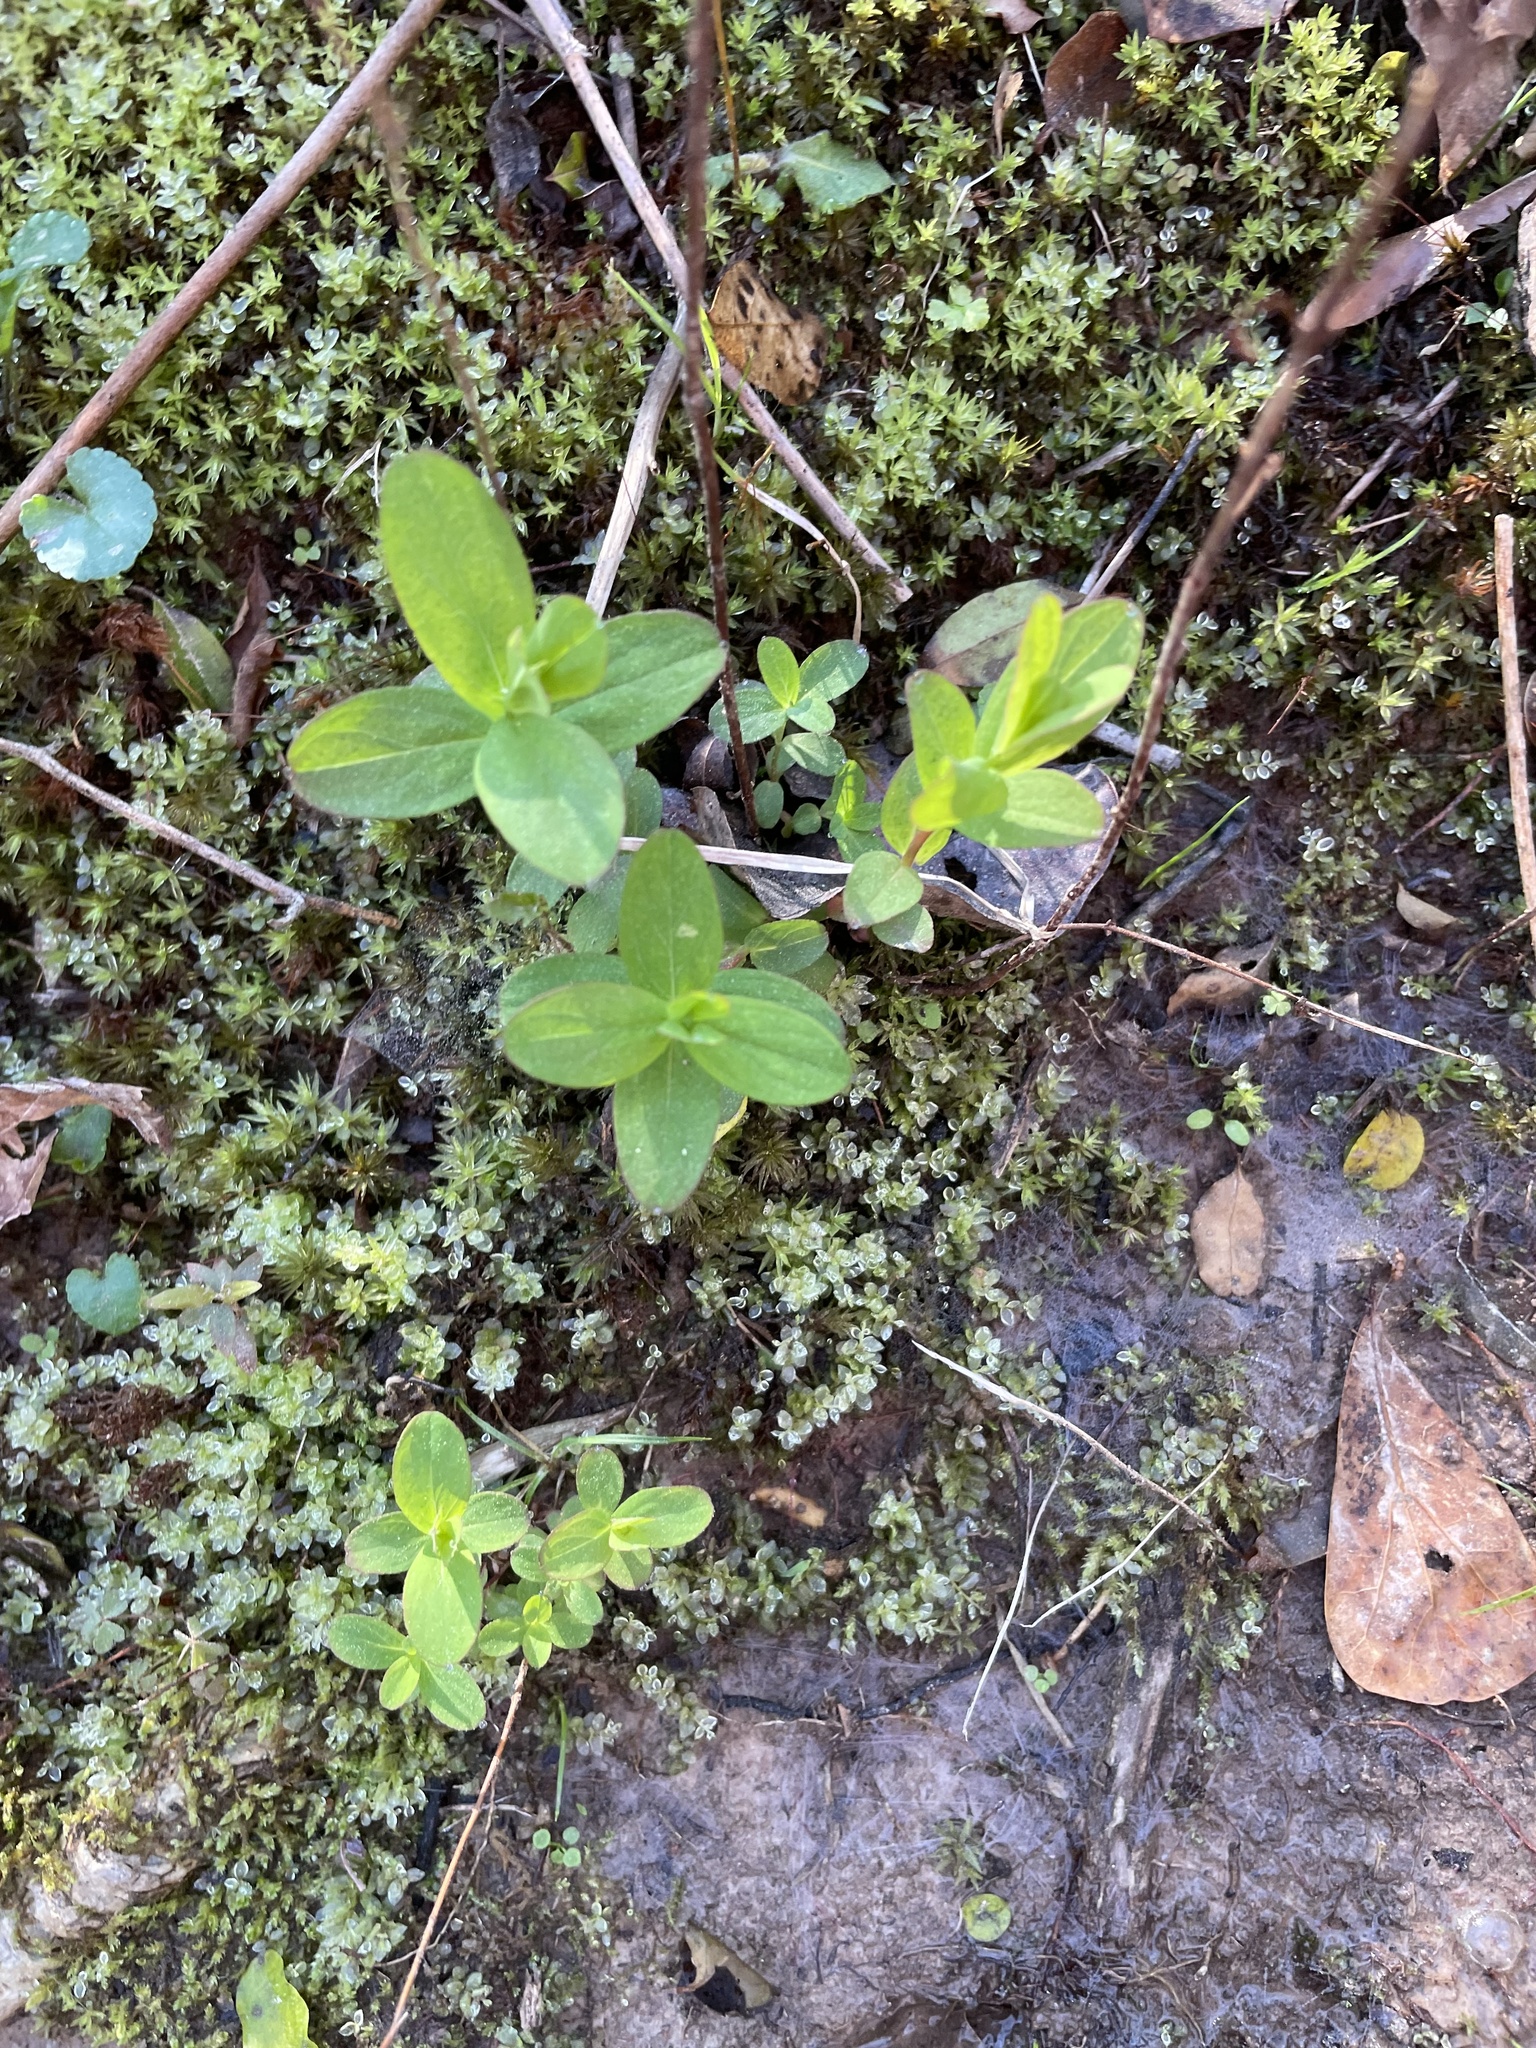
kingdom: Plantae
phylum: Tracheophyta
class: Magnoliopsida
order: Malpighiales
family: Hypericaceae
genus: Hypericum
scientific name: Hypericum punctatum
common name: Spotted st. john's-wort
